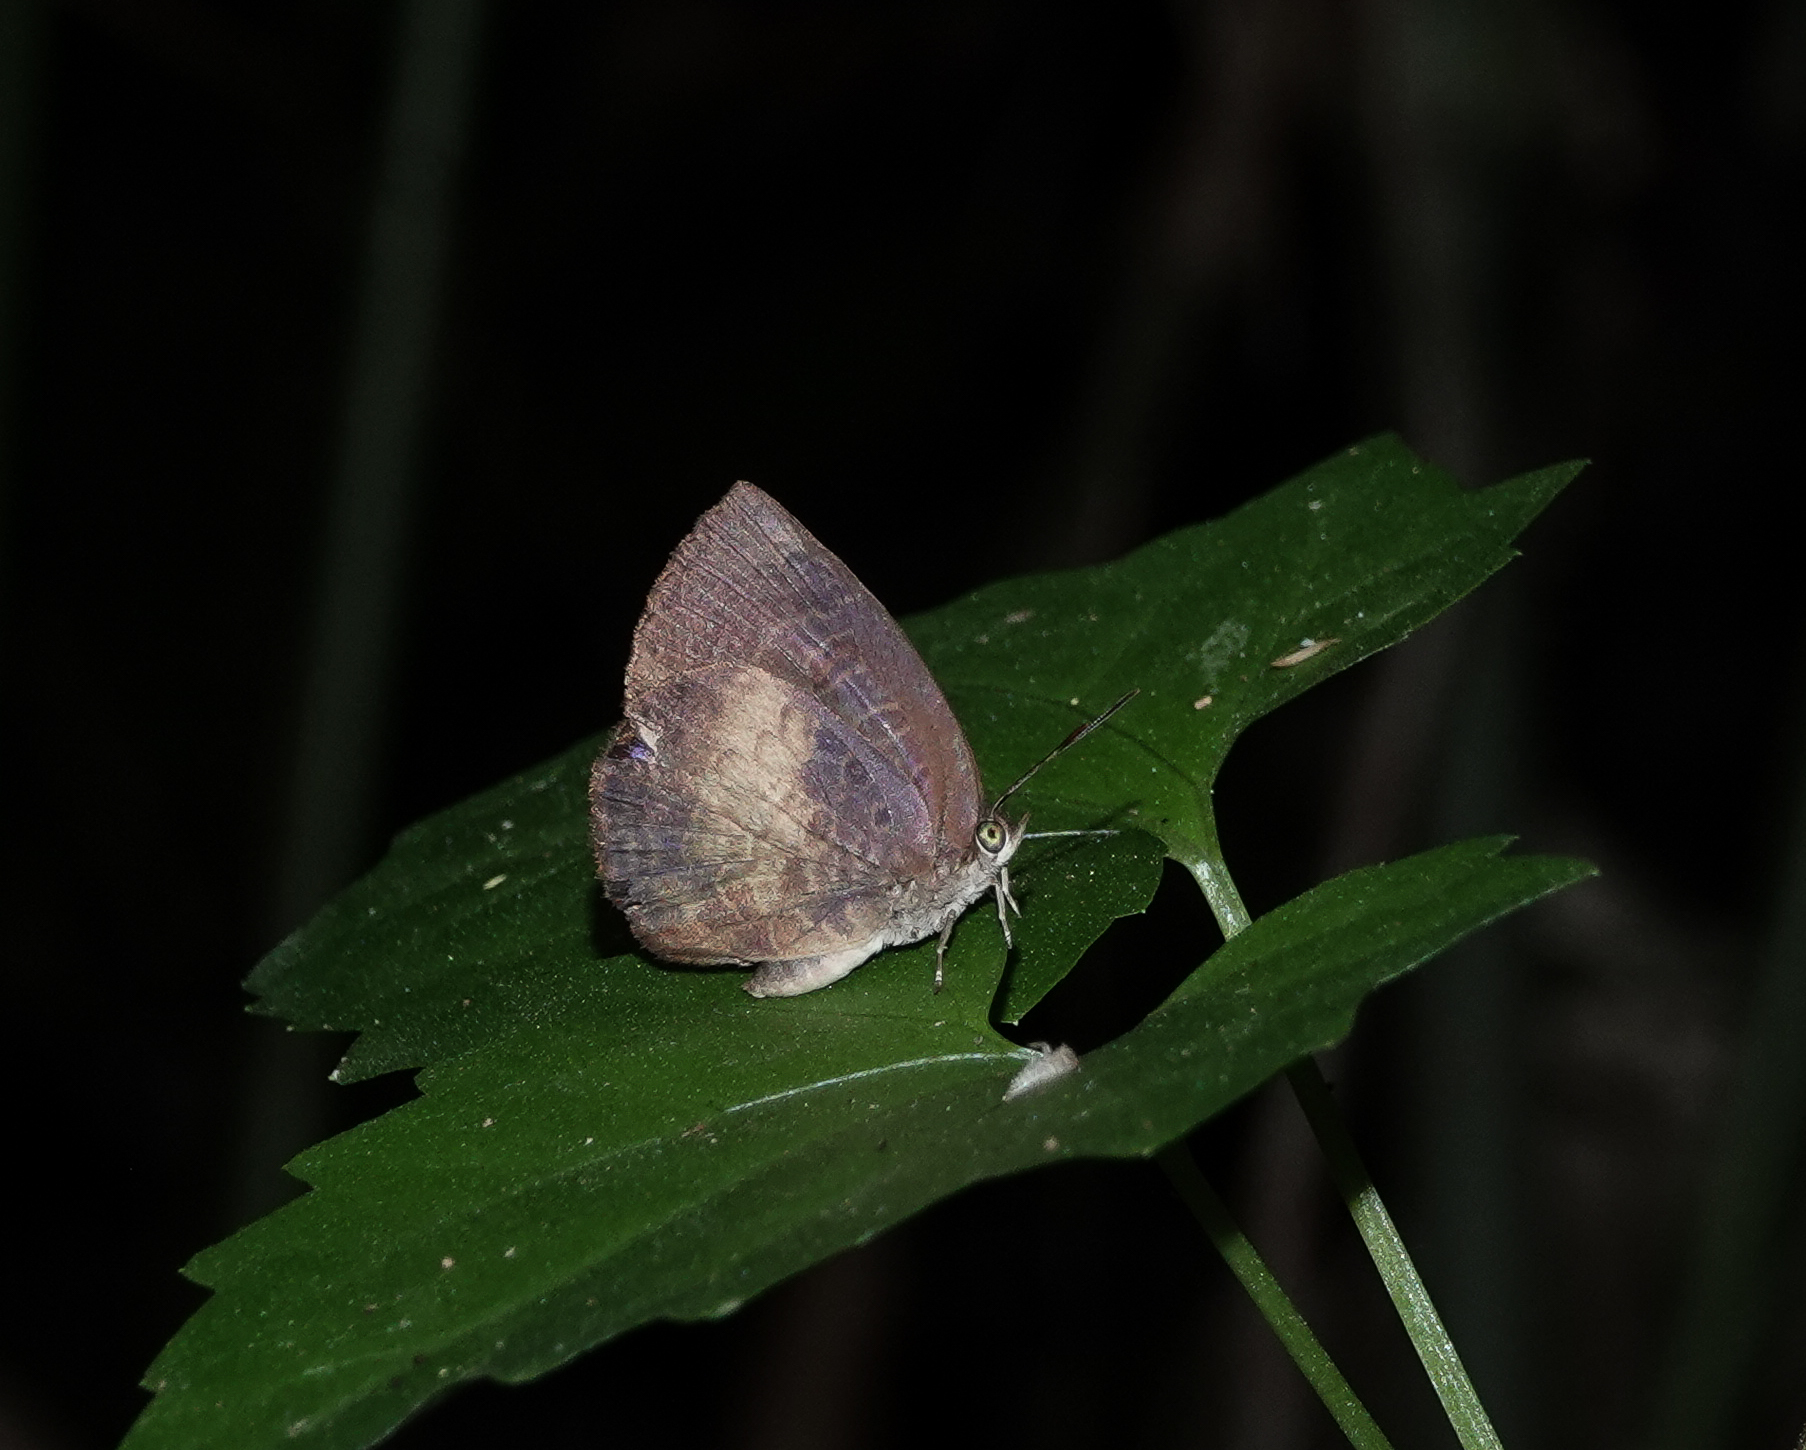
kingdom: Animalia
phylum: Arthropoda
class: Insecta
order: Lepidoptera
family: Lycaenidae
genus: Arhopala
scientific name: Arhopala perimuta
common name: Yellowdisc oakblue
